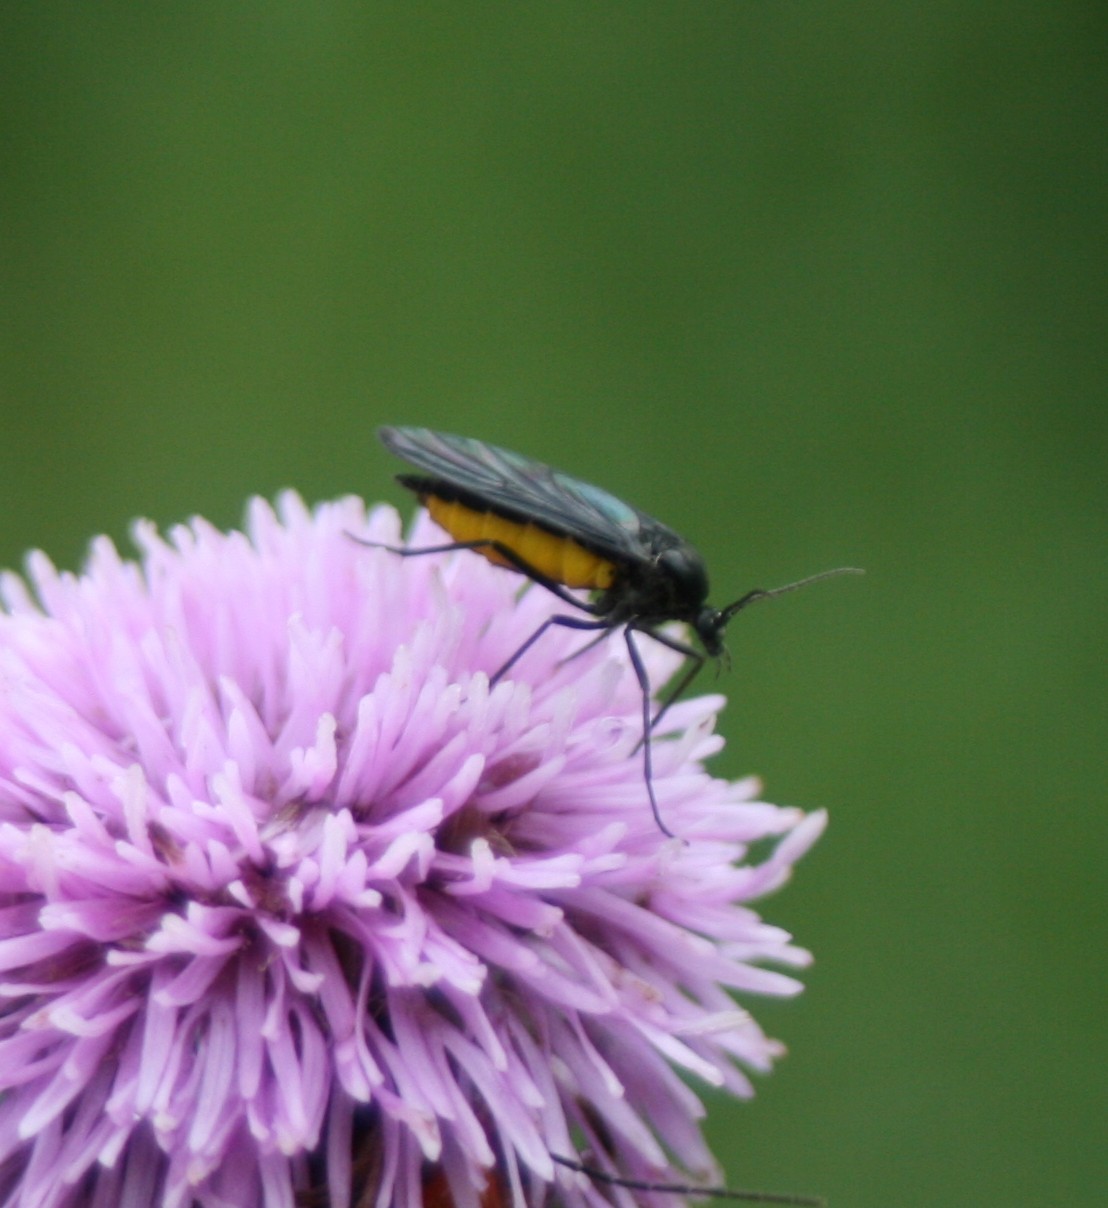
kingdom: Animalia
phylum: Arthropoda
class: Insecta
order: Diptera
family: Sciaridae
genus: Sciara
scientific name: Sciara hemerobioides
